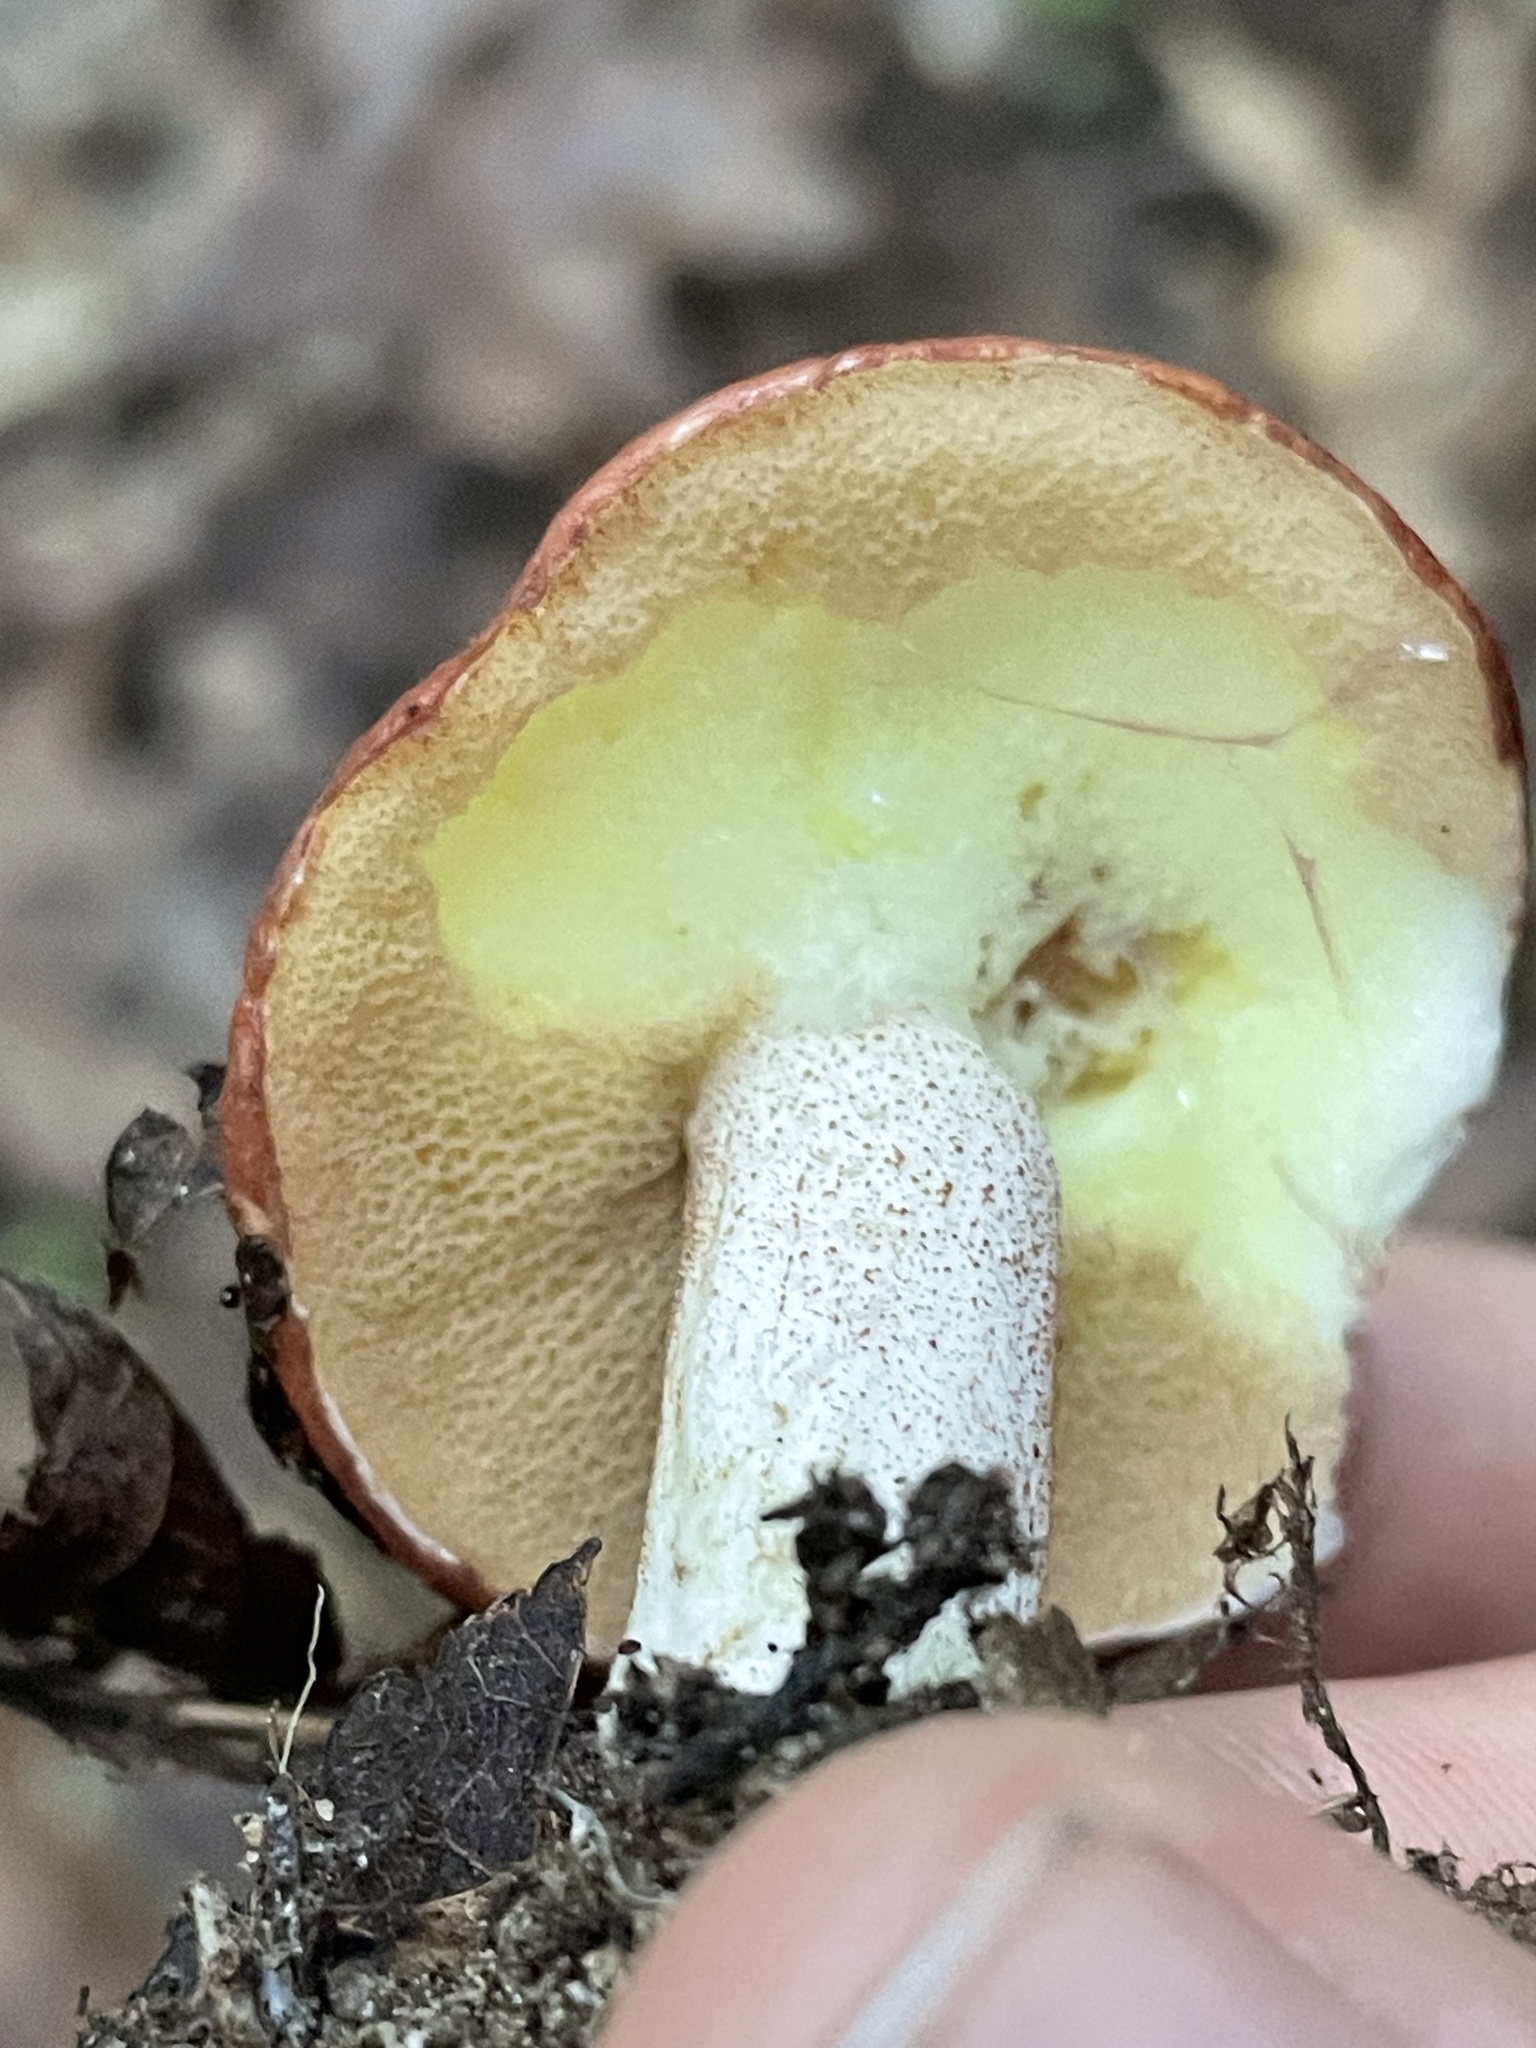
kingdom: Fungi
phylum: Basidiomycota
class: Agaricomycetes
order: Boletales
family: Suillaceae
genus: Fuscoboletinus
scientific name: Fuscoboletinus weaverae
